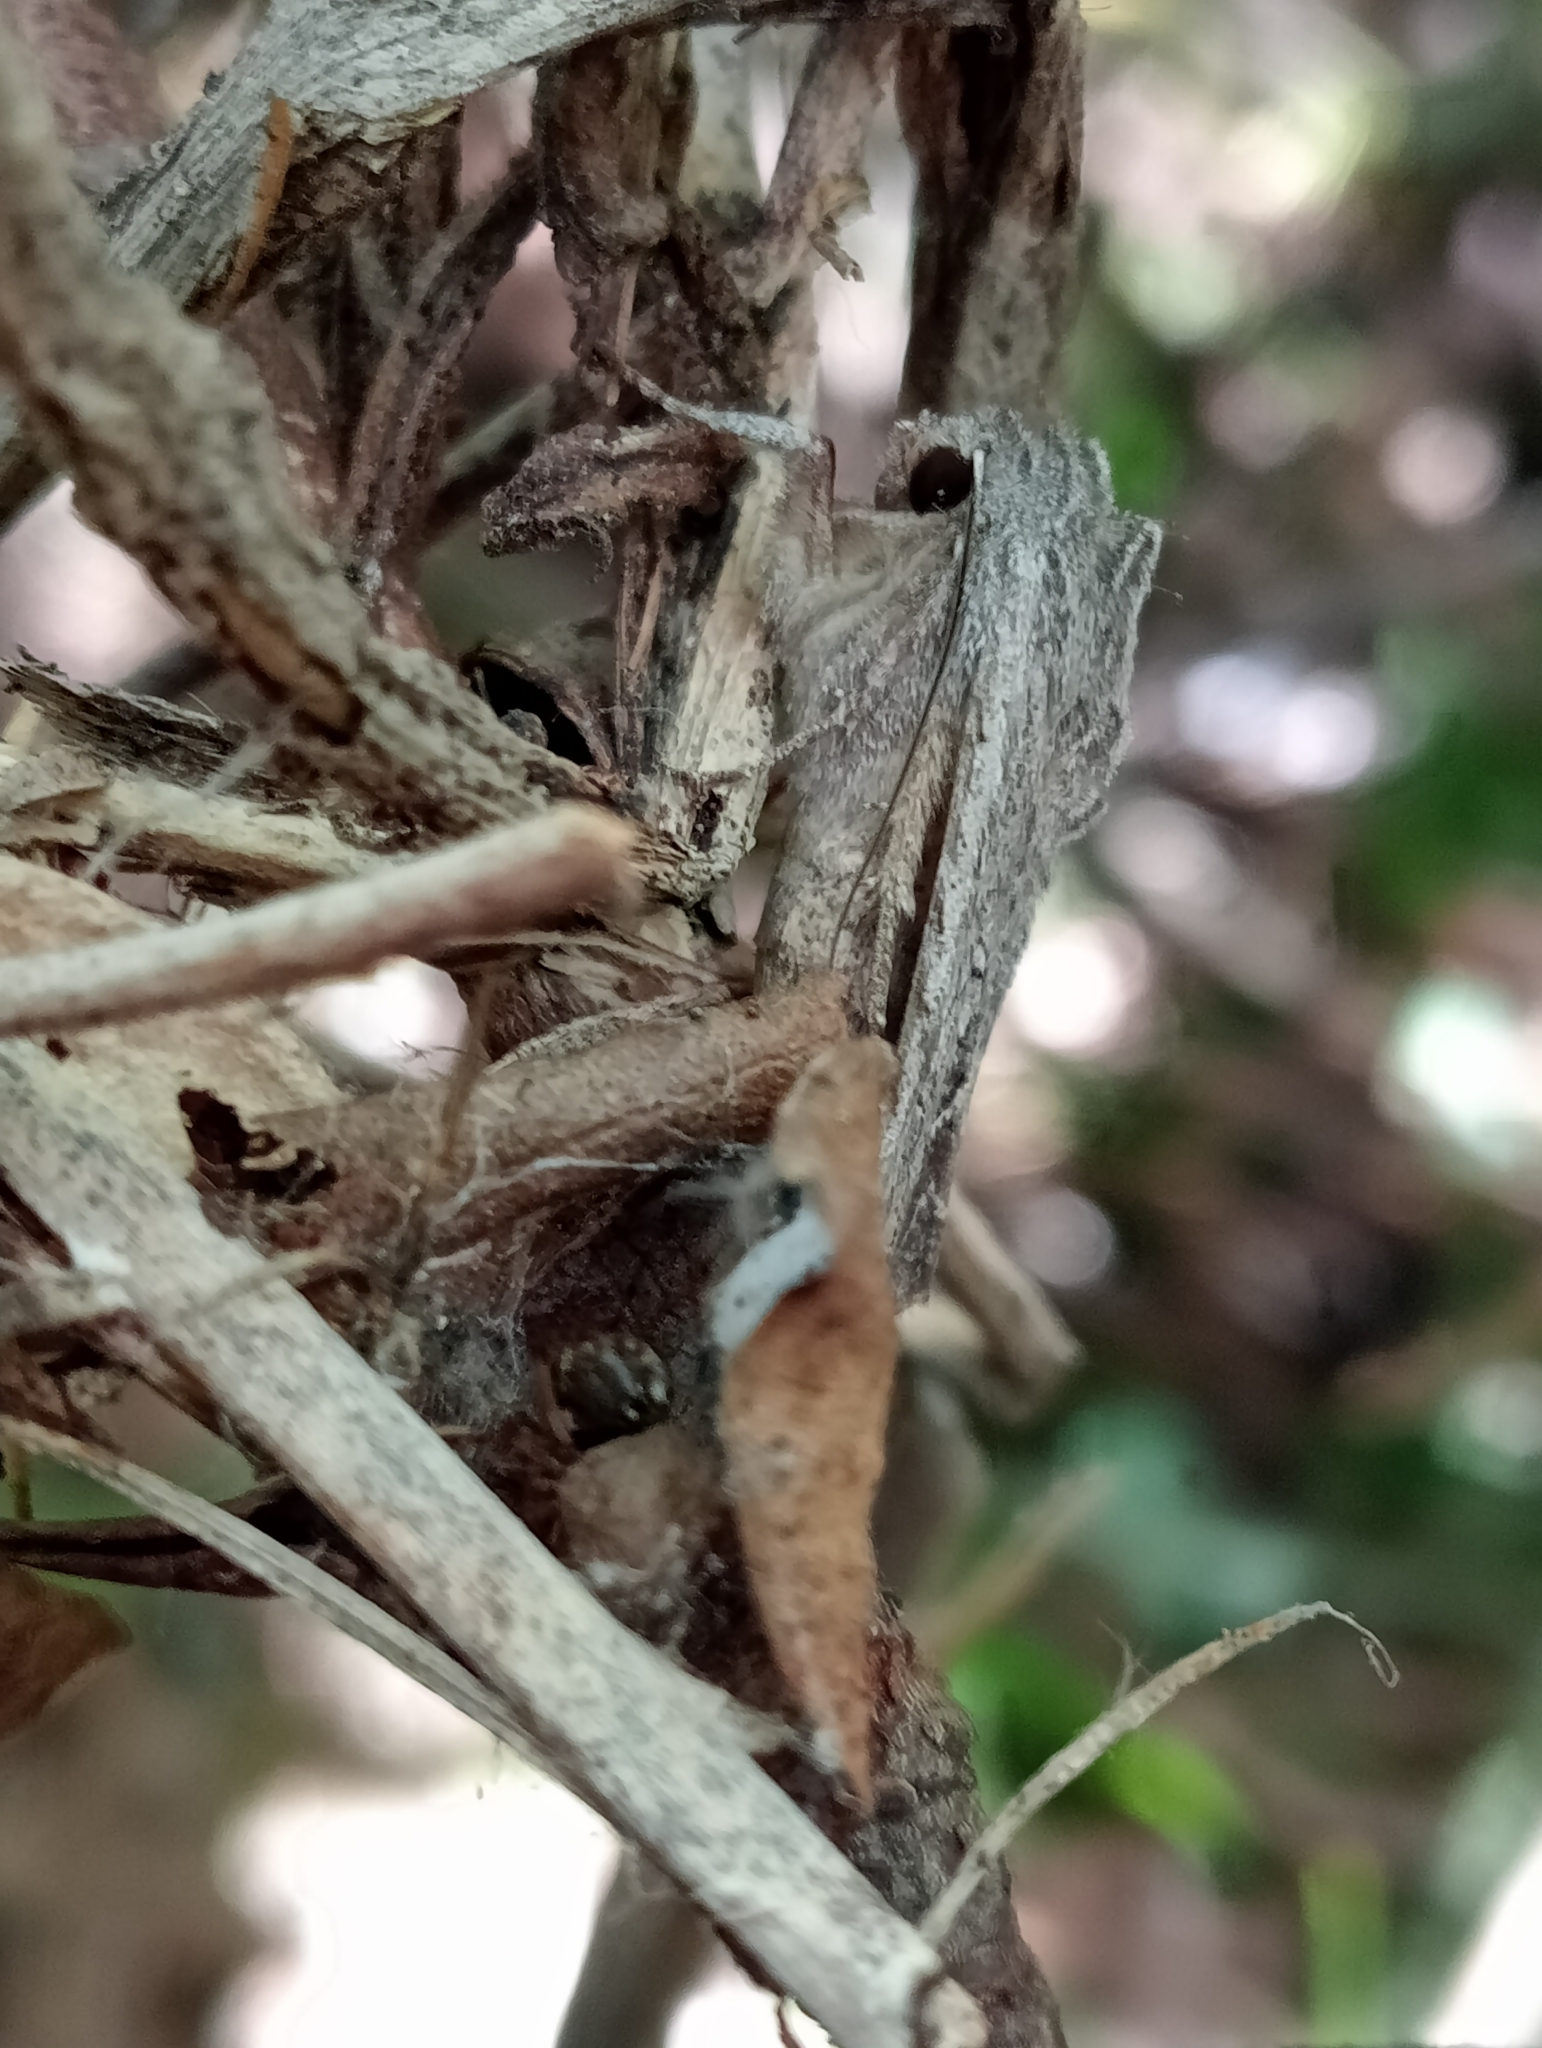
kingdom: Animalia
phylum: Arthropoda
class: Insecta
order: Lepidoptera
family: Noctuidae
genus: Ichneutica
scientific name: Ichneutica
